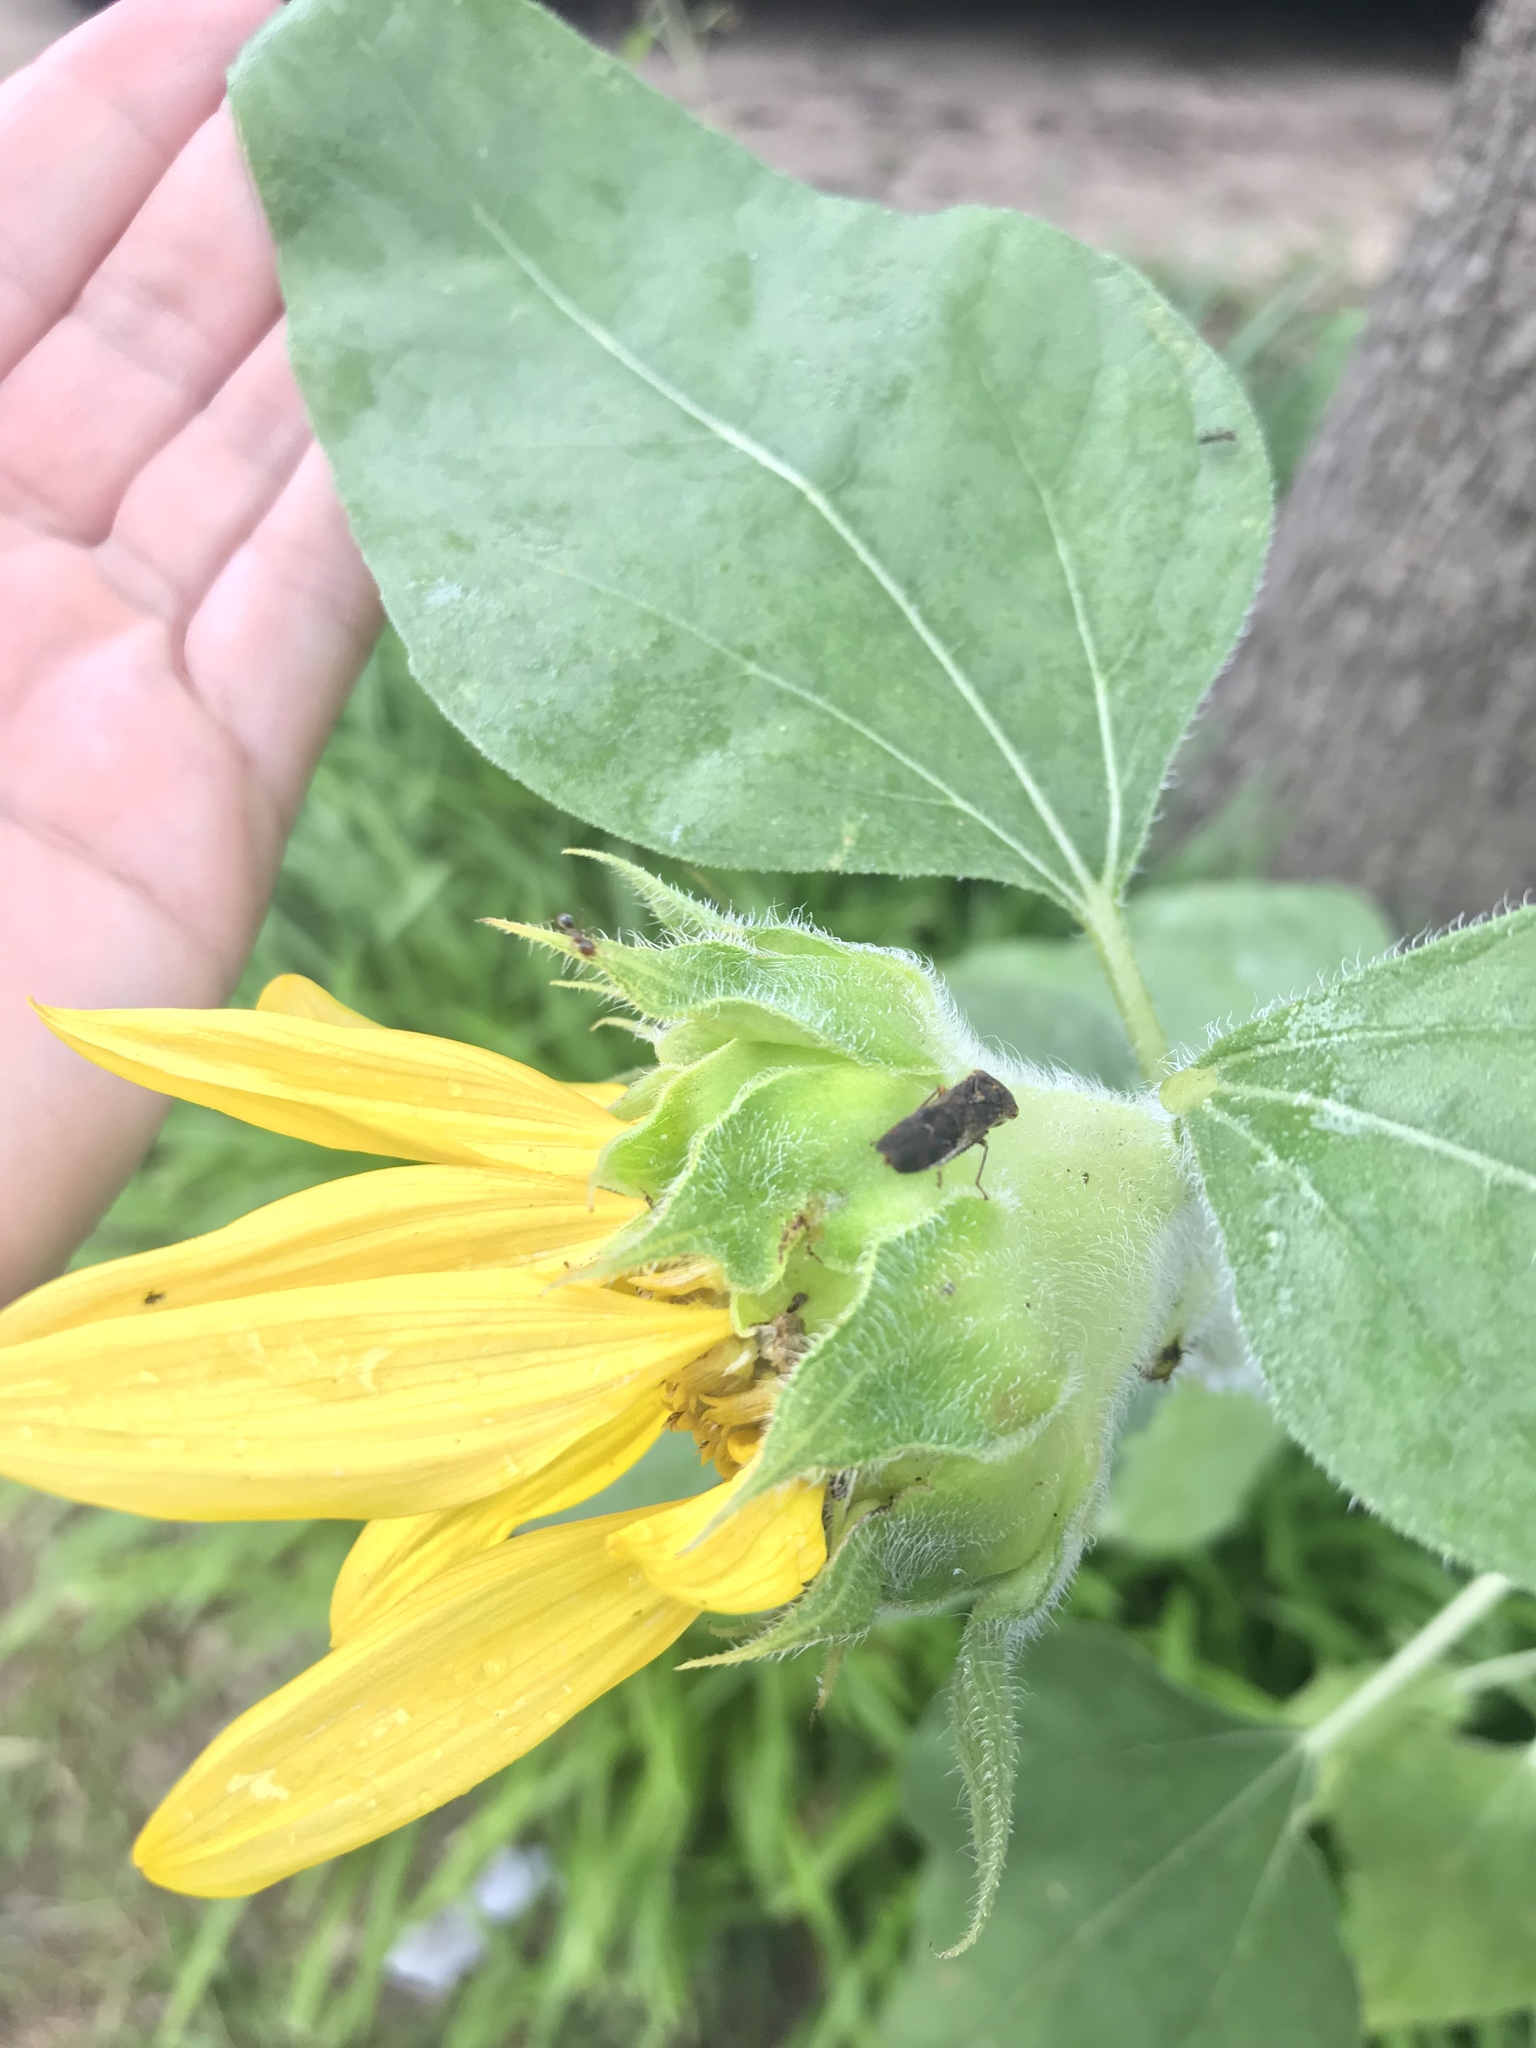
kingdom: Animalia
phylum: Arthropoda
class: Insecta
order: Hemiptera
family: Cicadellidae
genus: Homalodisca
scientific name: Homalodisca vitripennis
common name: Glassy-winged sharpshooter
